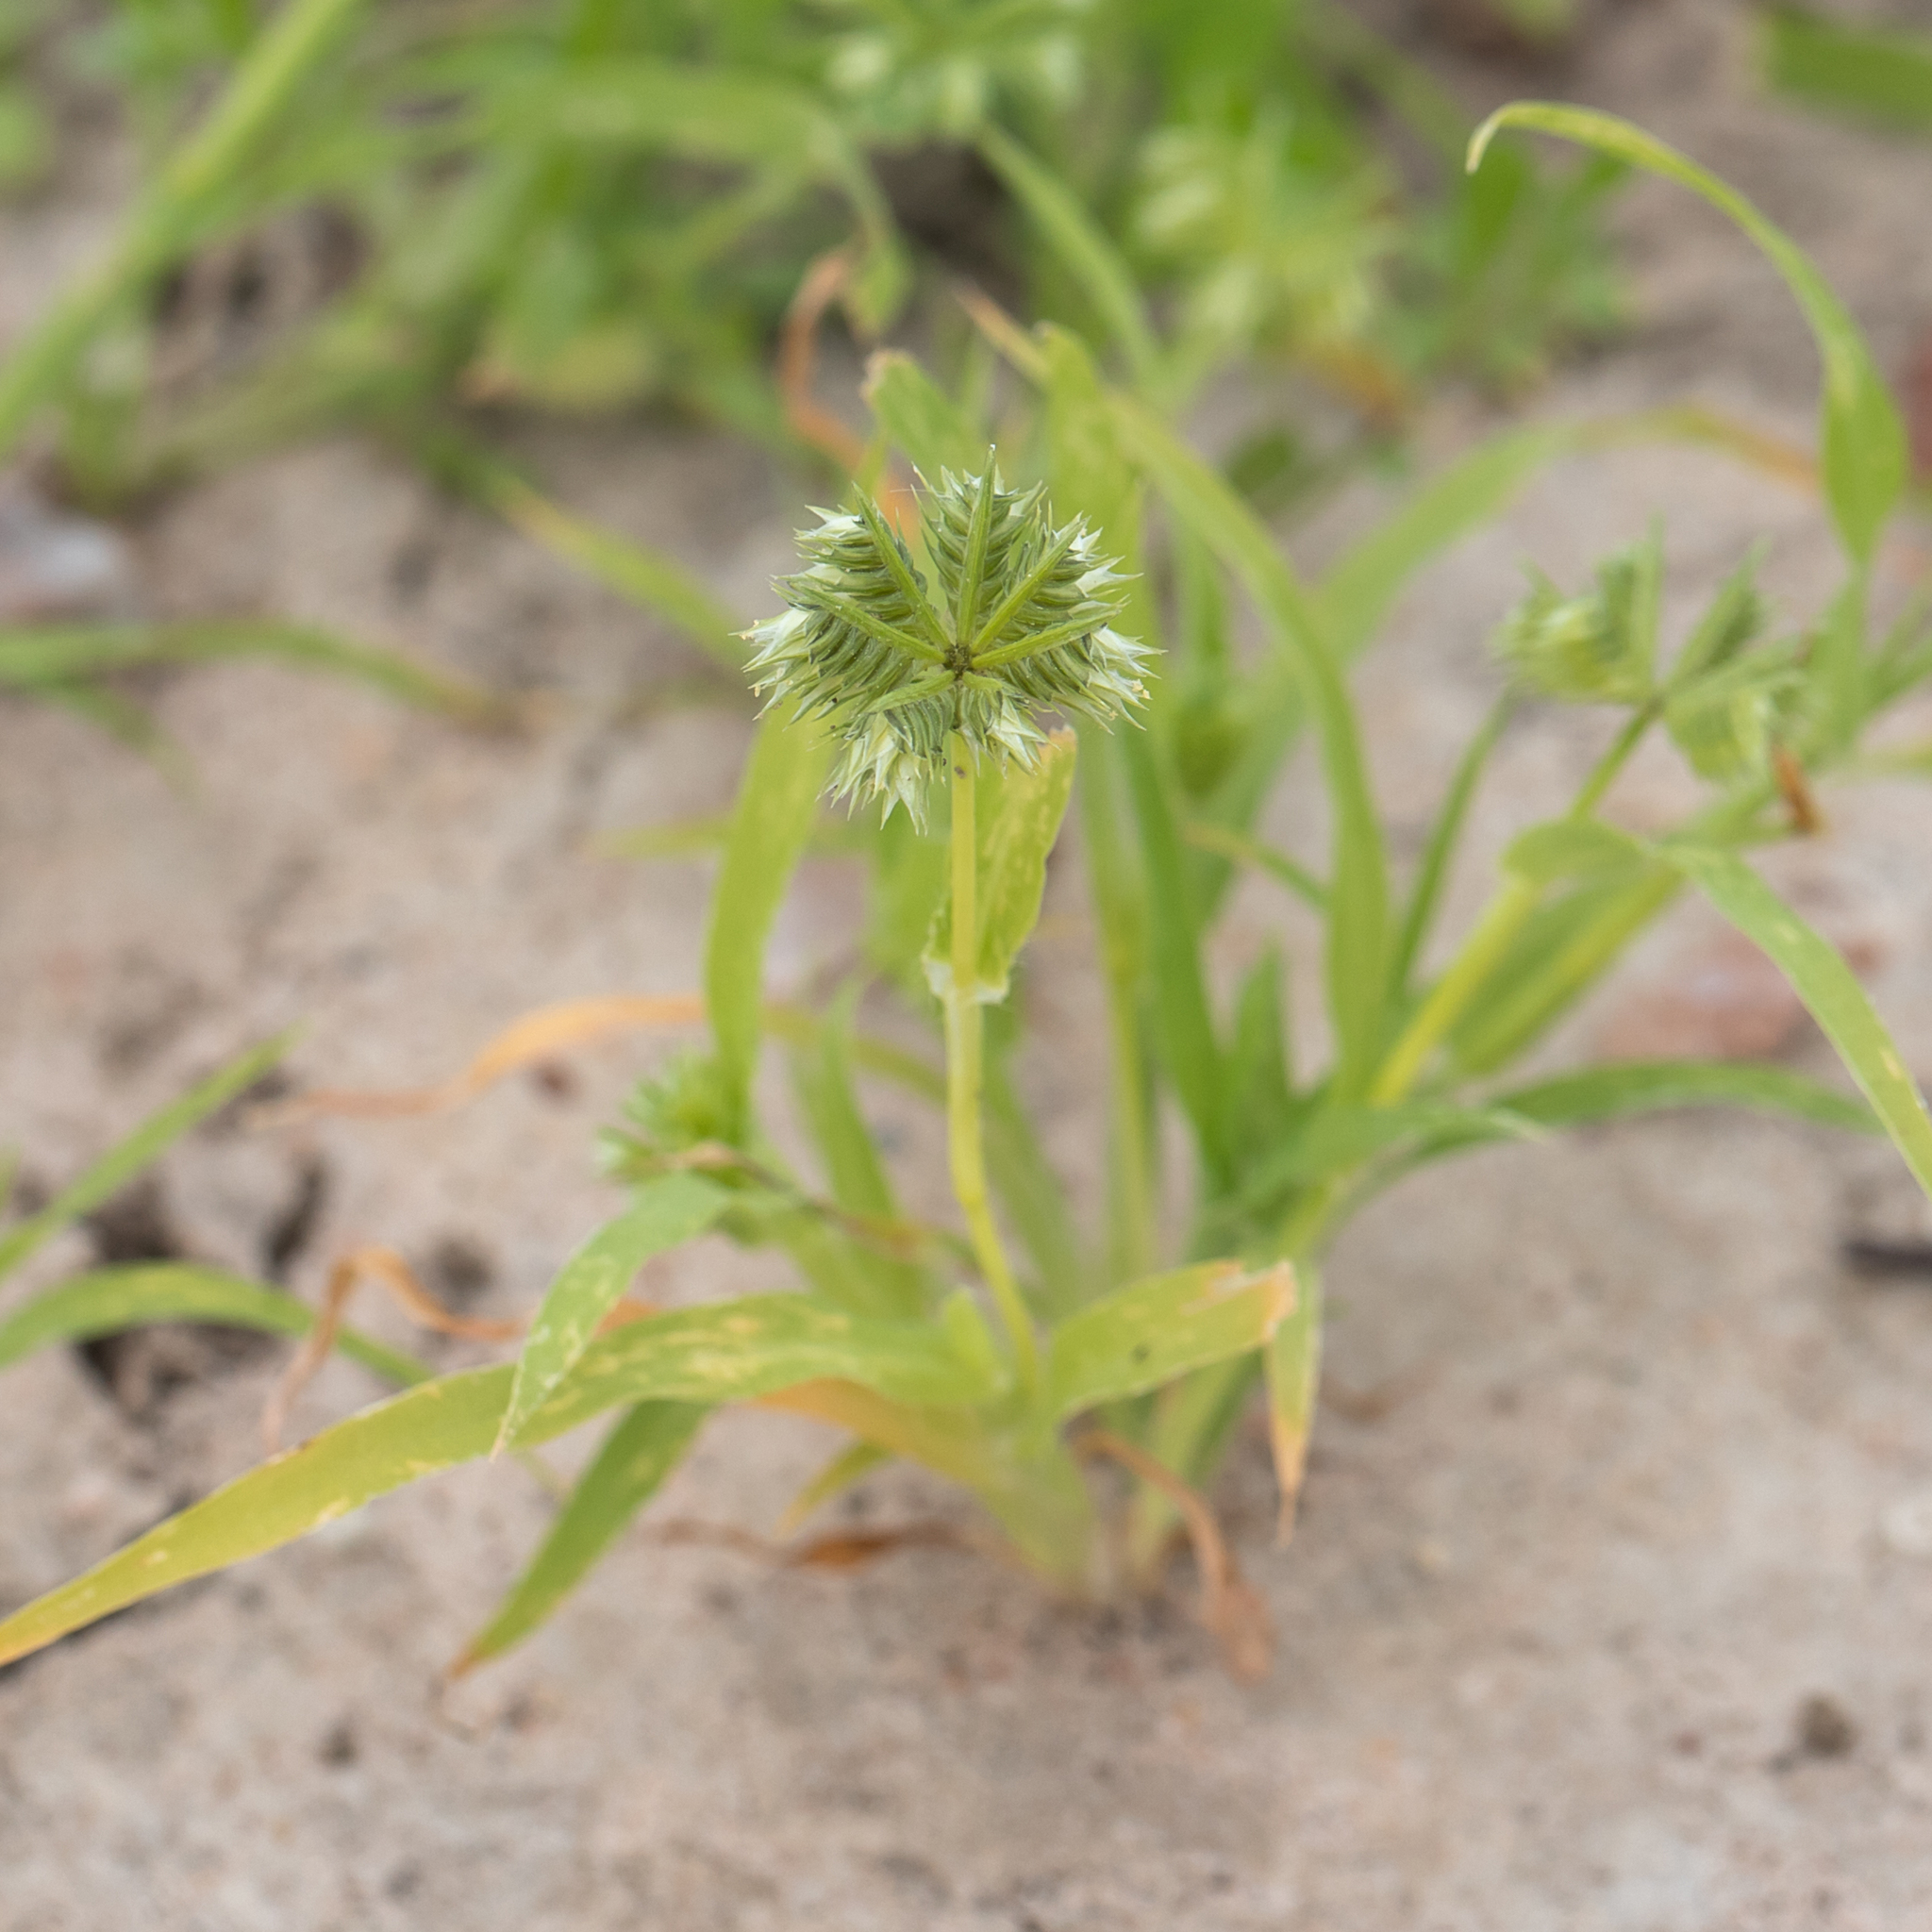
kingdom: Plantae
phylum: Tracheophyta
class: Liliopsida
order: Poales
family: Poaceae
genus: Dactyloctenium
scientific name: Dactyloctenium radulans
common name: Button-grass
